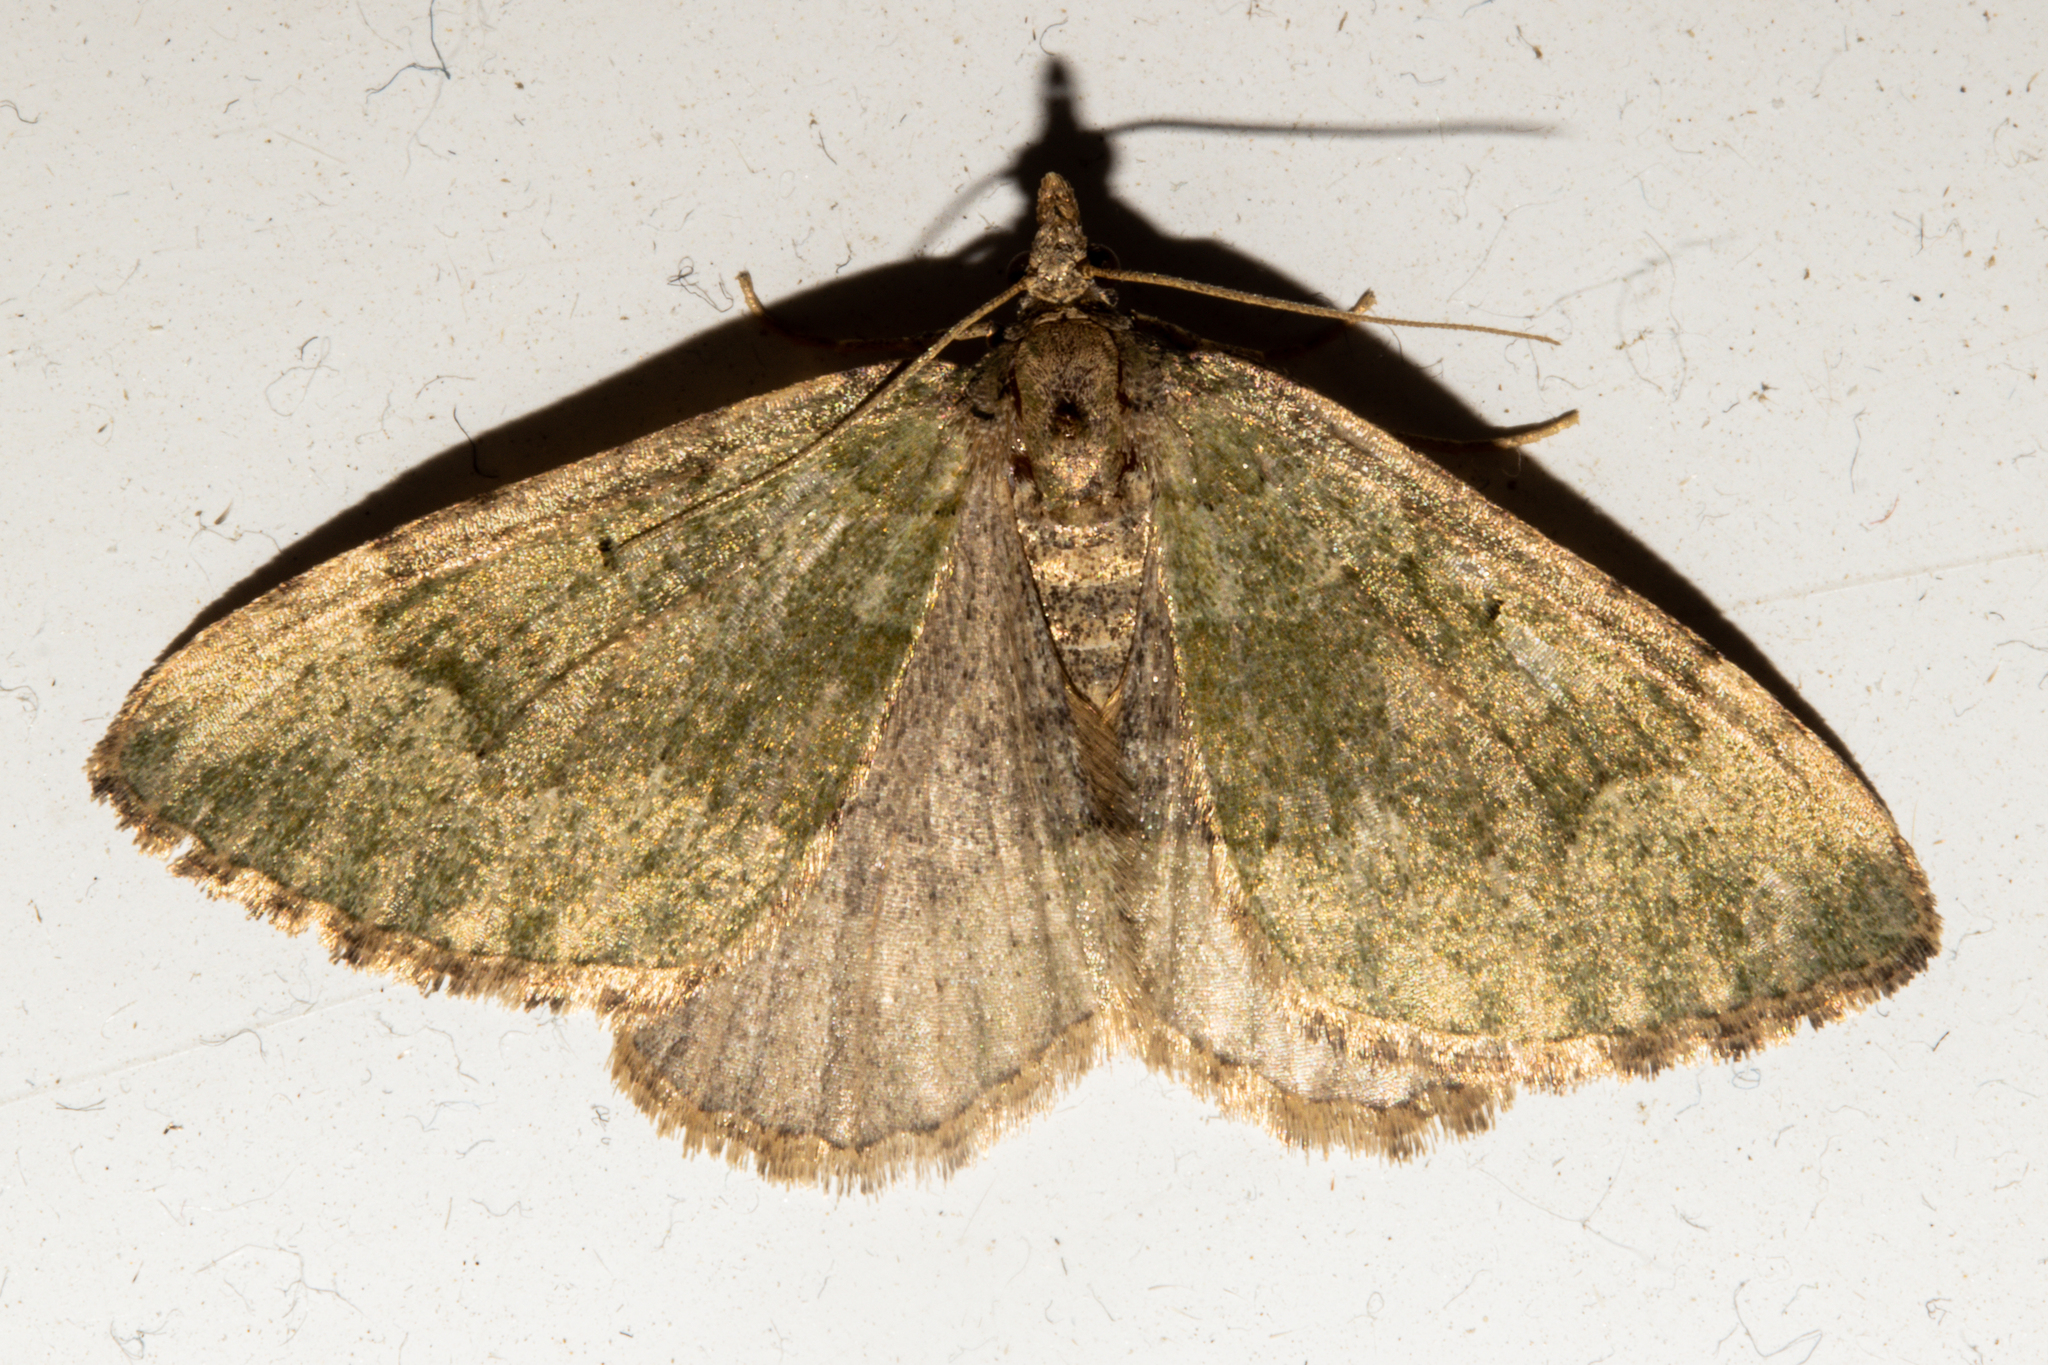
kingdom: Animalia
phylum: Arthropoda
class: Insecta
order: Lepidoptera
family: Geometridae
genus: Epyaxa
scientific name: Epyaxa rosearia
